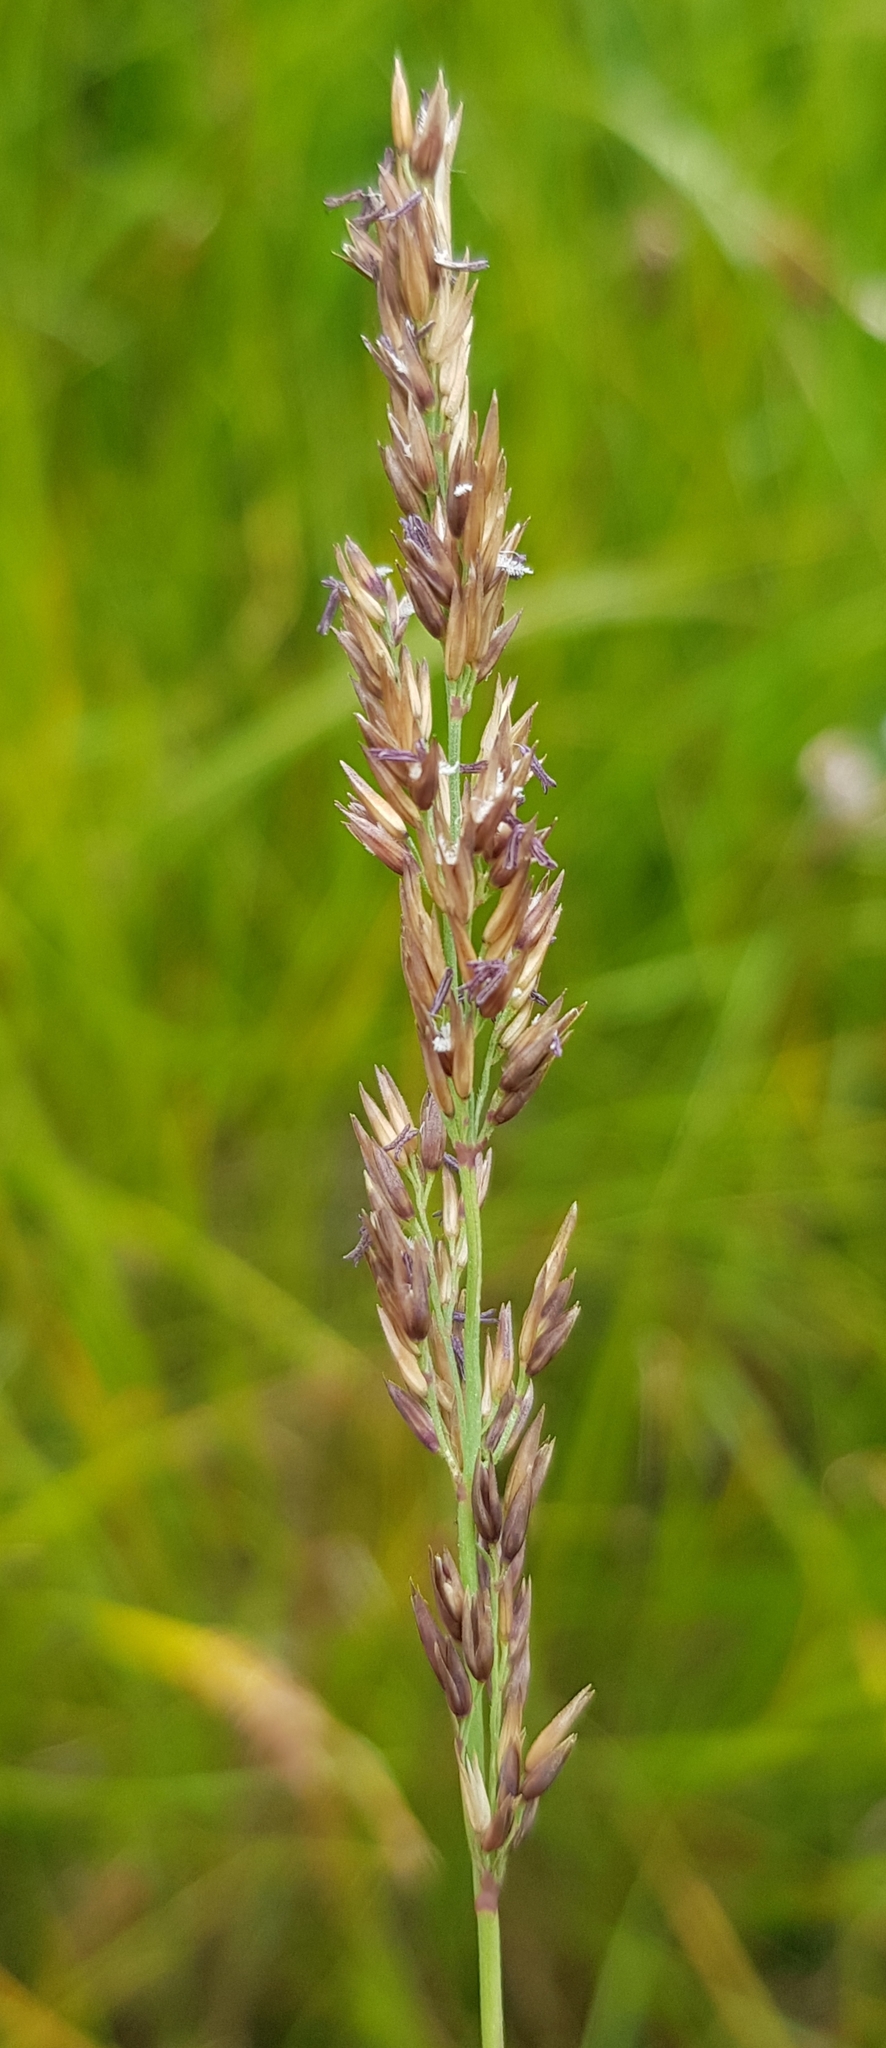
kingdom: Plantae
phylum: Tracheophyta
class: Liliopsida
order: Poales
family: Poaceae
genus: Calamagrostis
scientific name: Calamagrostis stricta
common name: Narrow small-reed
